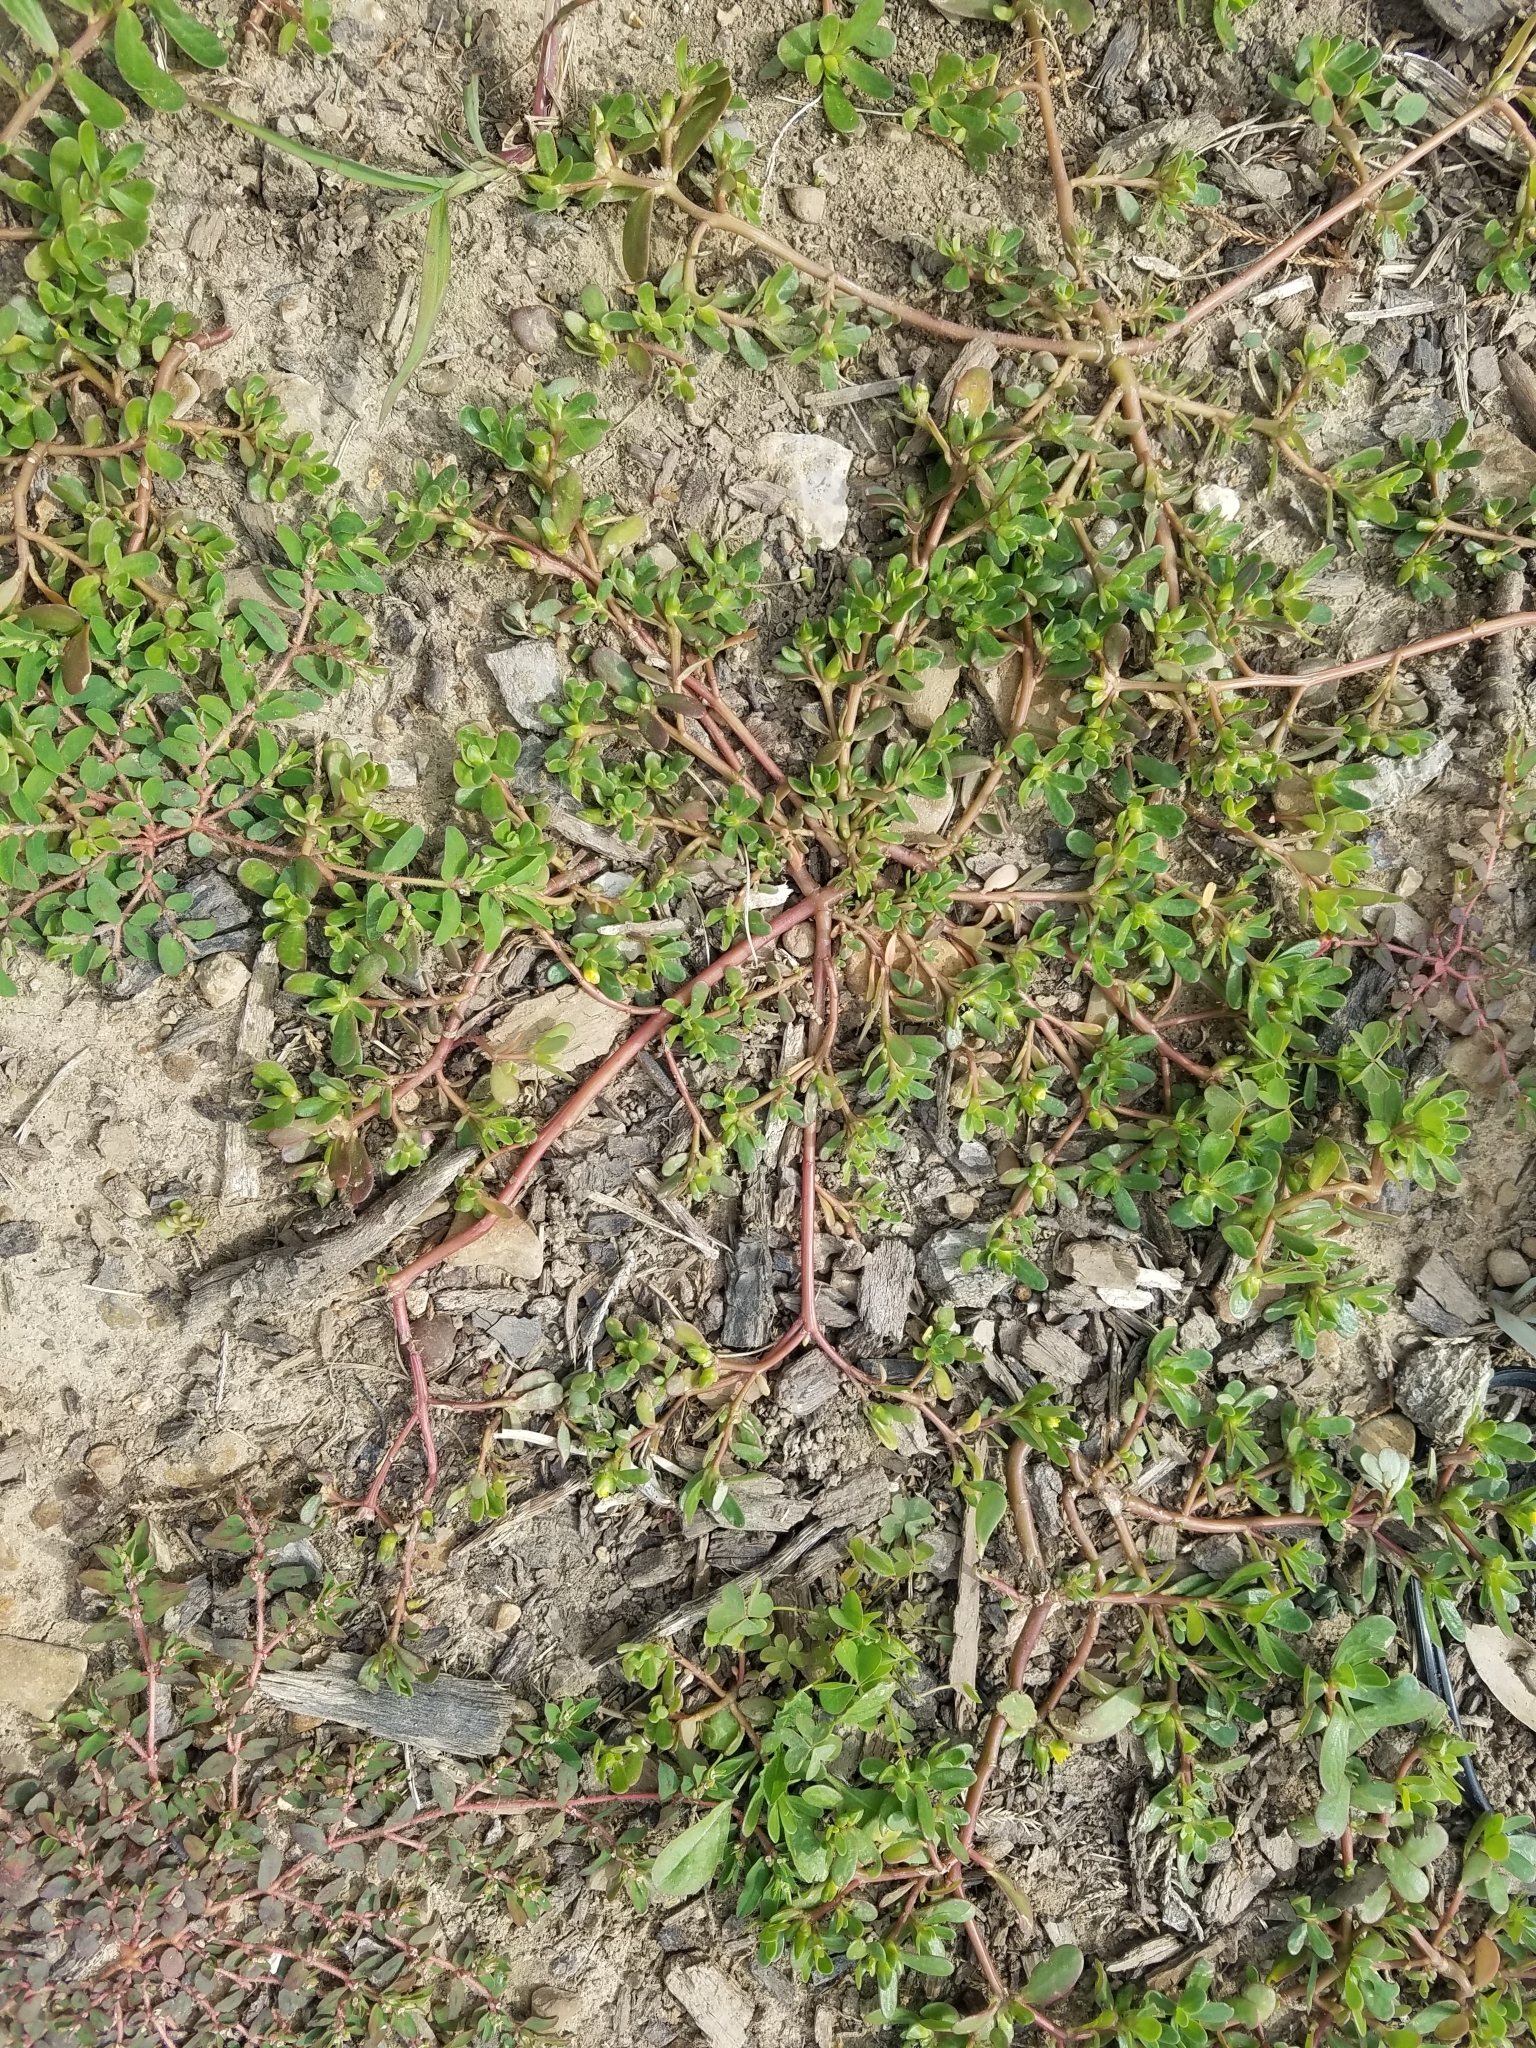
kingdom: Plantae
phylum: Tracheophyta
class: Magnoliopsida
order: Caryophyllales
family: Portulacaceae
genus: Portulaca
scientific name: Portulaca oleracea
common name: Common purslane
